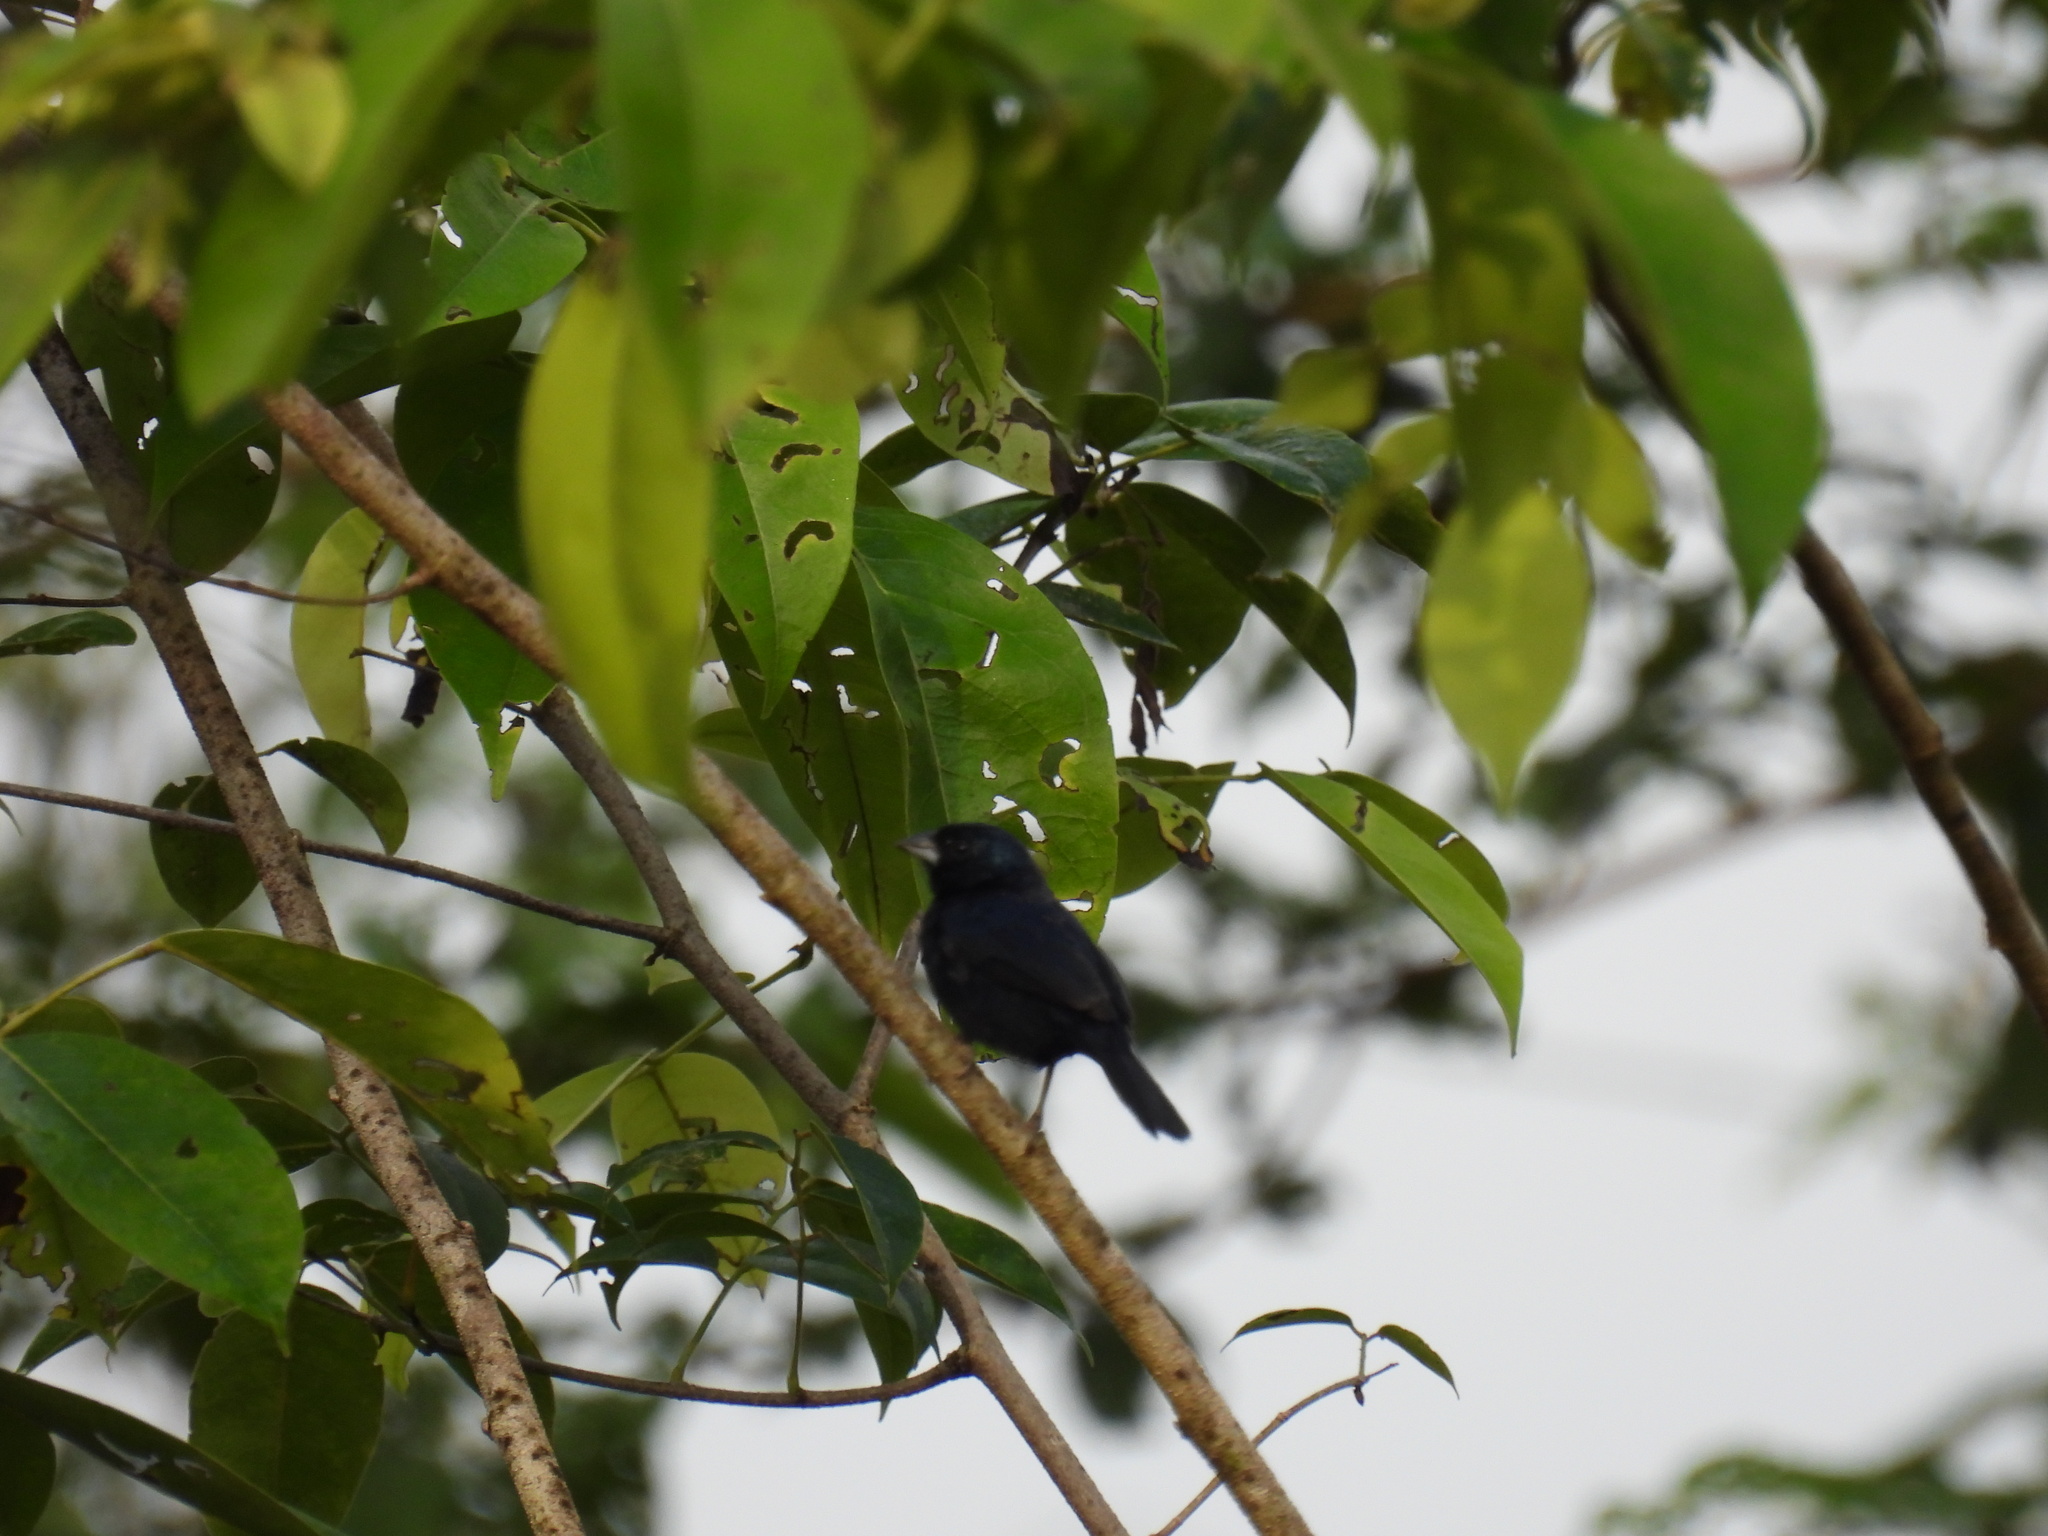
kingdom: Animalia
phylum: Chordata
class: Aves
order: Passeriformes
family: Thraupidae
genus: Volatinia
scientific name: Volatinia jacarina
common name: Blue-black grassquit
